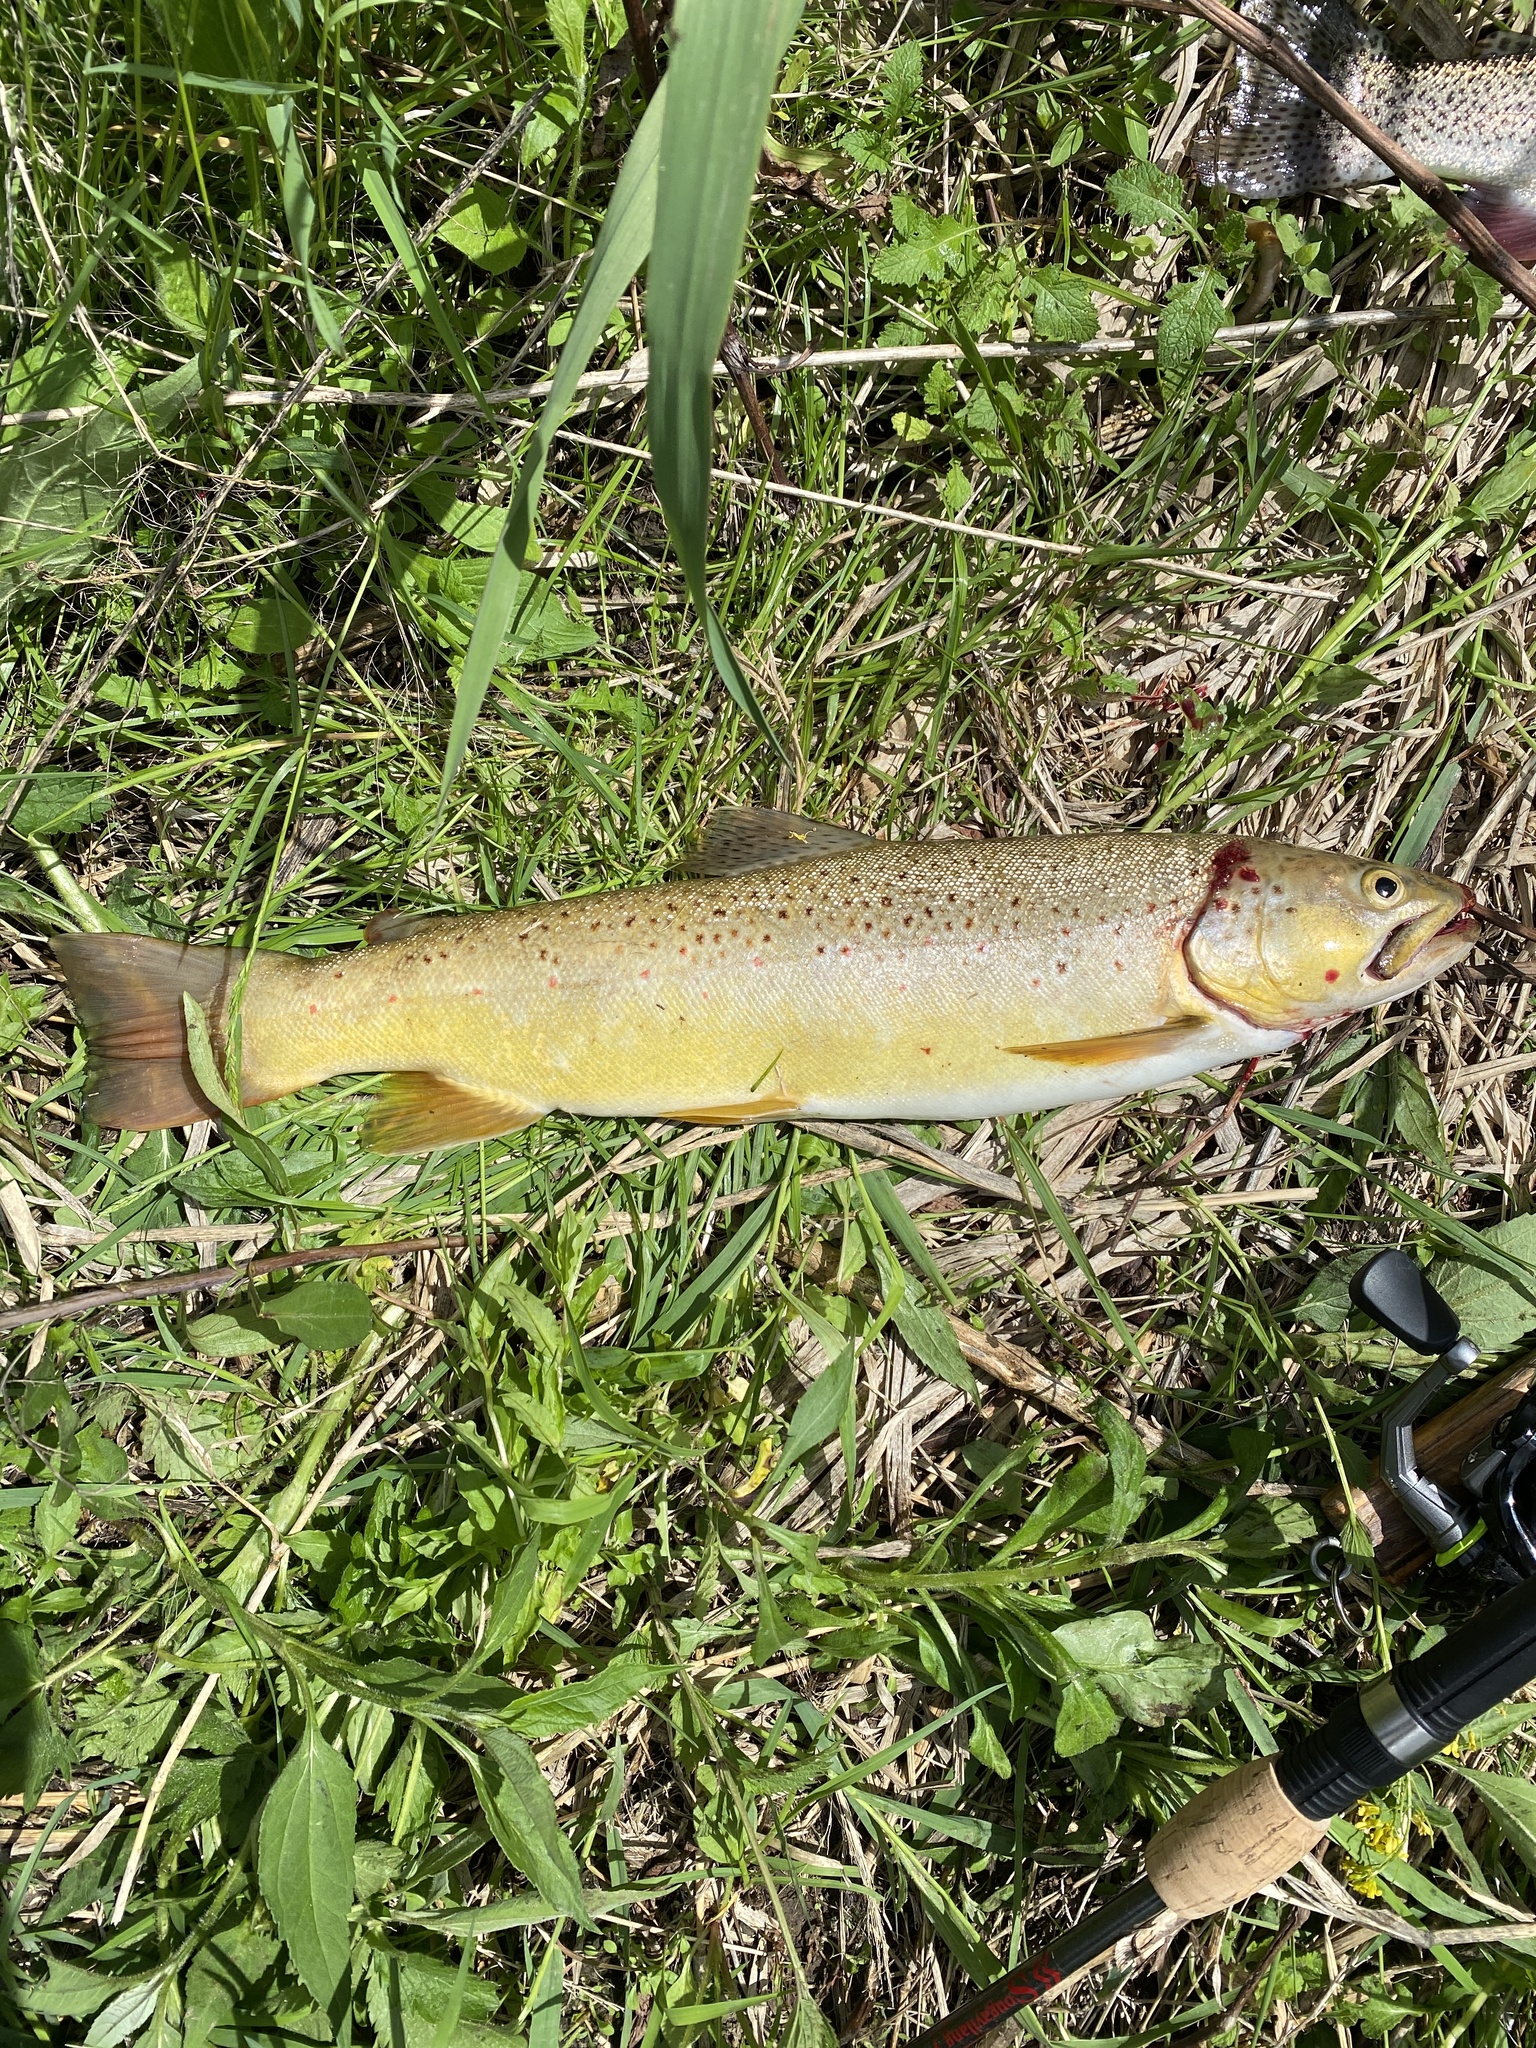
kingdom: Animalia
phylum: Chordata
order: Salmoniformes
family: Salmonidae
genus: Salmo
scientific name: Salmo trutta
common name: Brown trout
